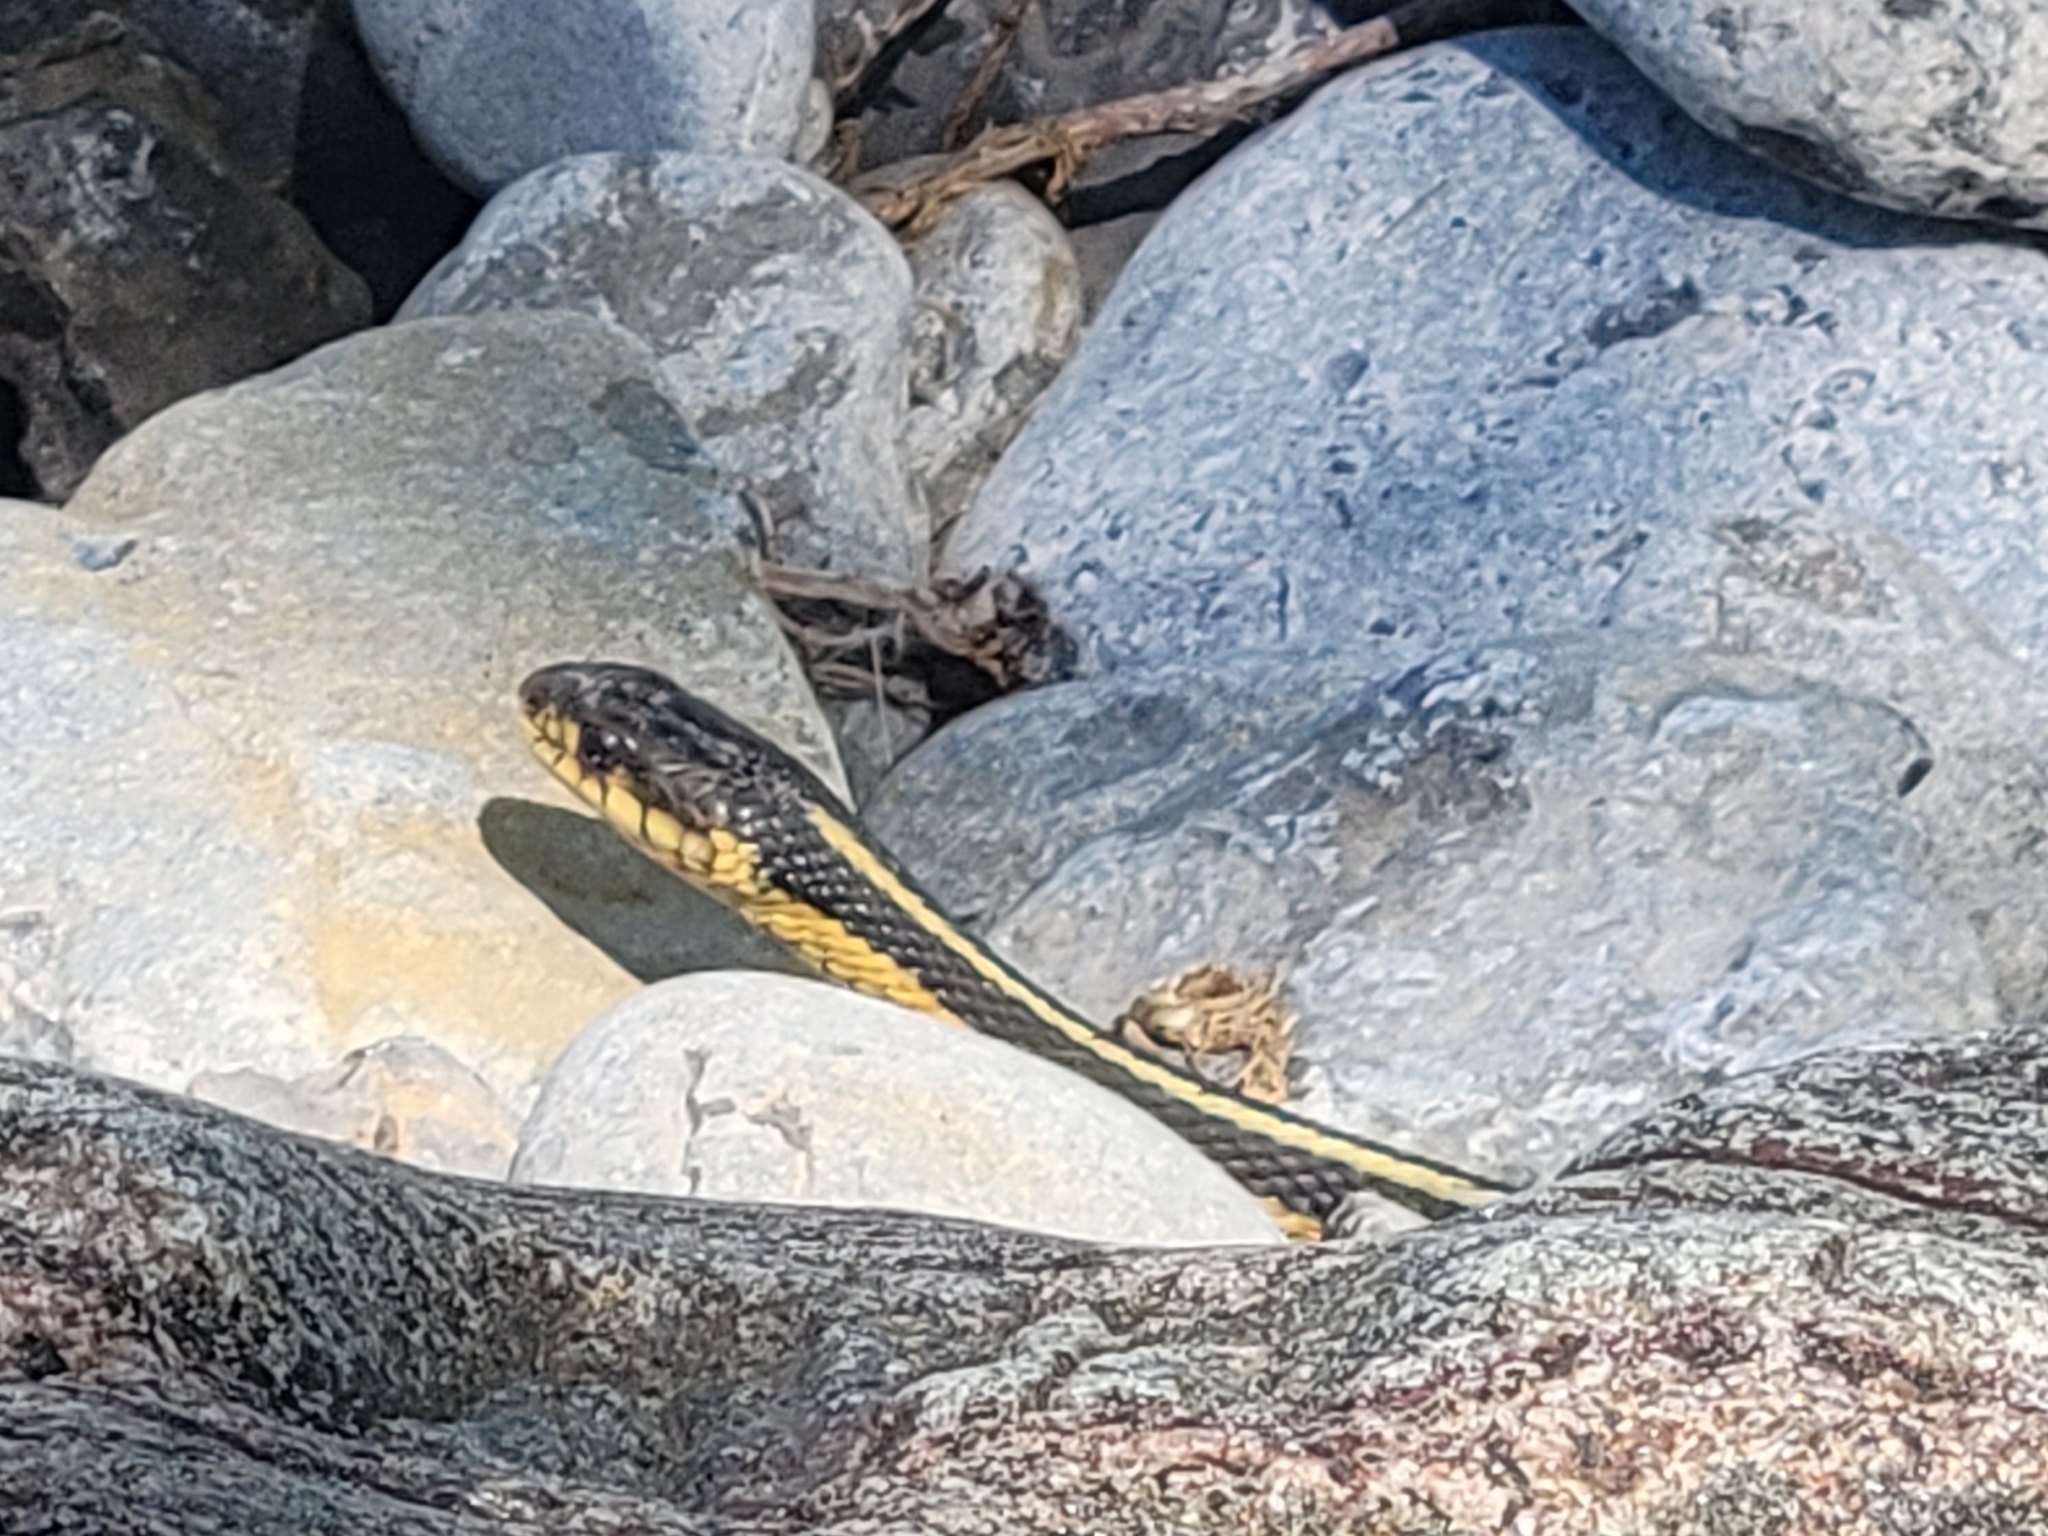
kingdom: Animalia
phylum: Chordata
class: Squamata
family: Colubridae
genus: Thamnophis
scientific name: Thamnophis sirtalis
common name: Common garter snake
